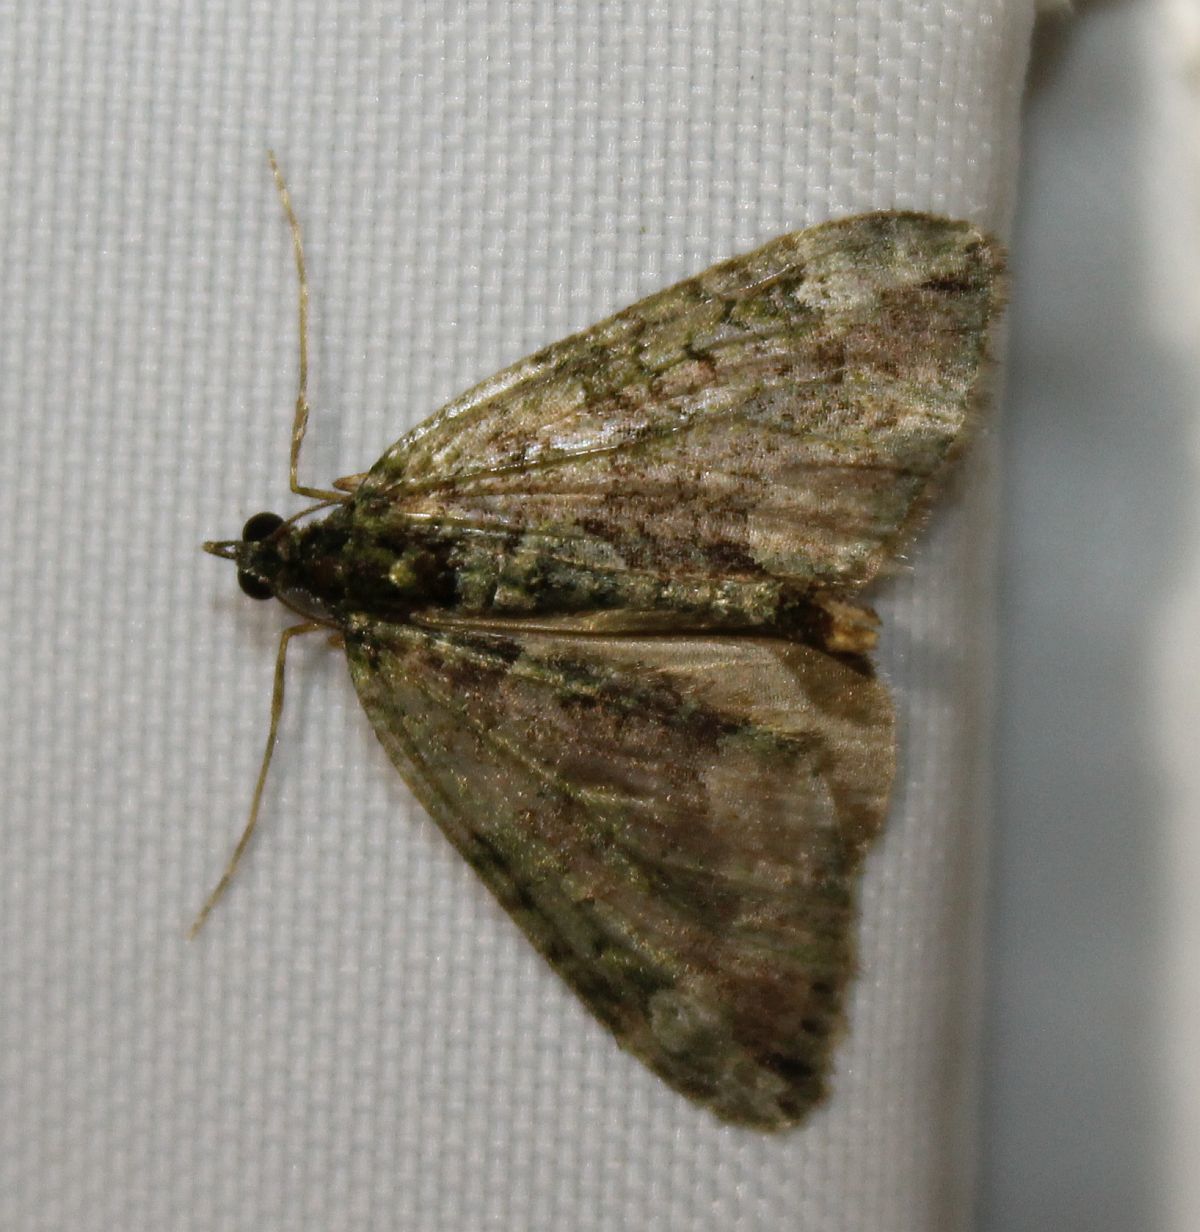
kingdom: Animalia
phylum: Arthropoda
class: Insecta
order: Lepidoptera
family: Geometridae
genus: Chloroclysta
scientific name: Chloroclysta siterata
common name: Red-green carpet
